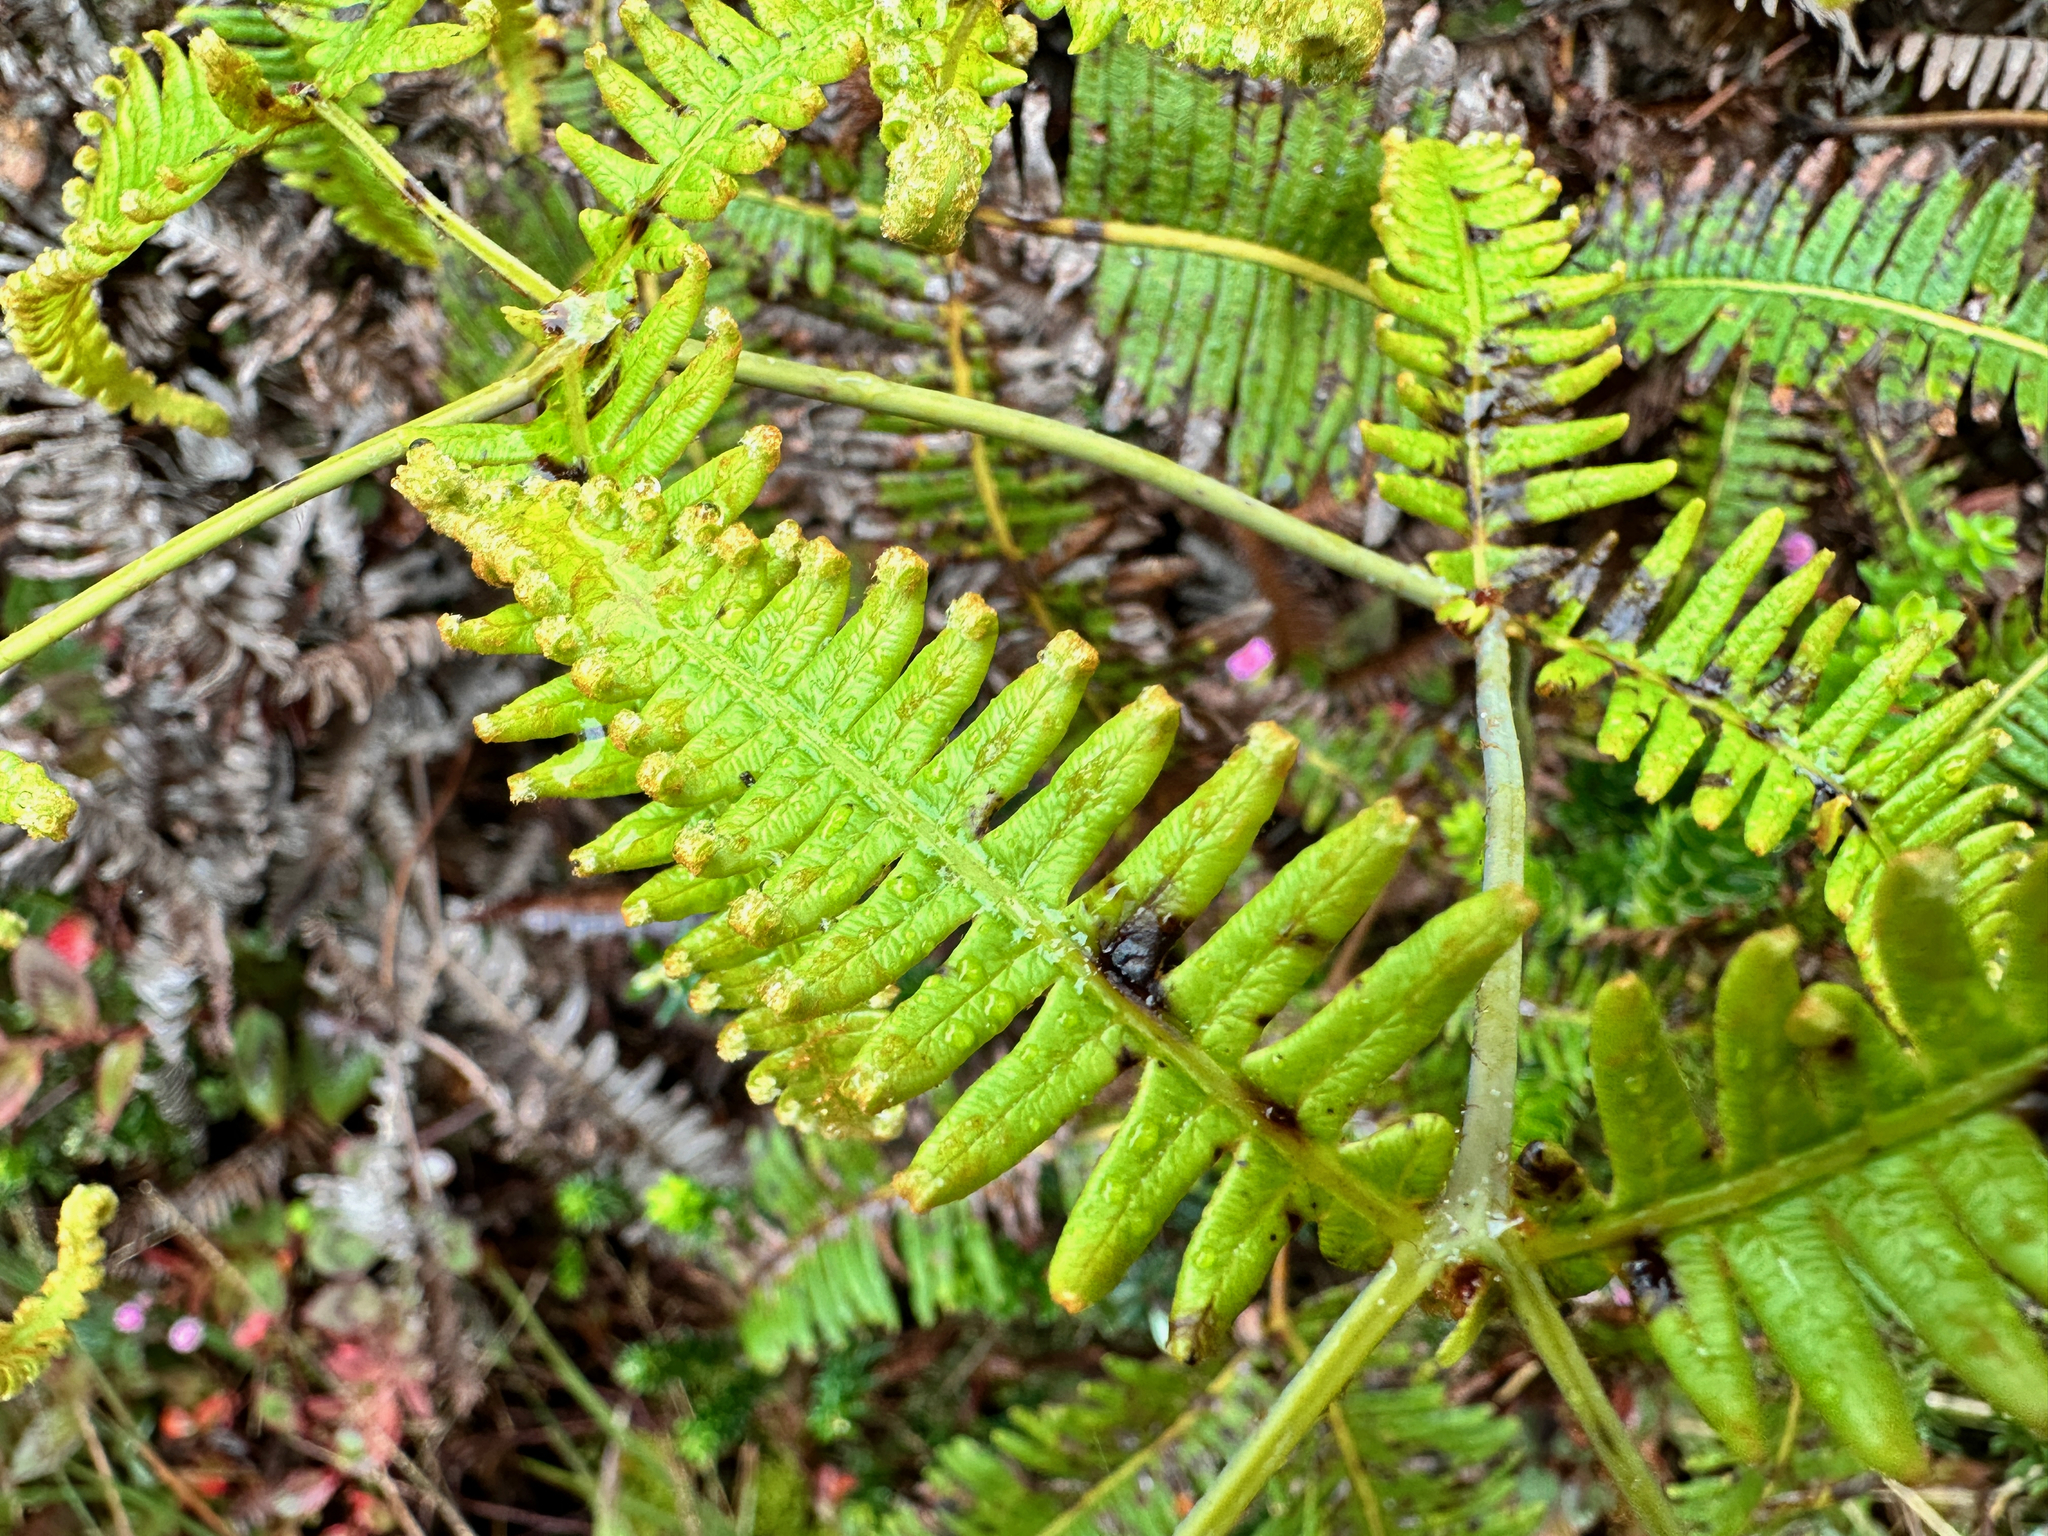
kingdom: Plantae
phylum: Tracheophyta
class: Polypodiopsida
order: Gleicheniales
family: Gleicheniaceae
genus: Dicranopteris
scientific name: Dicranopteris linearis
